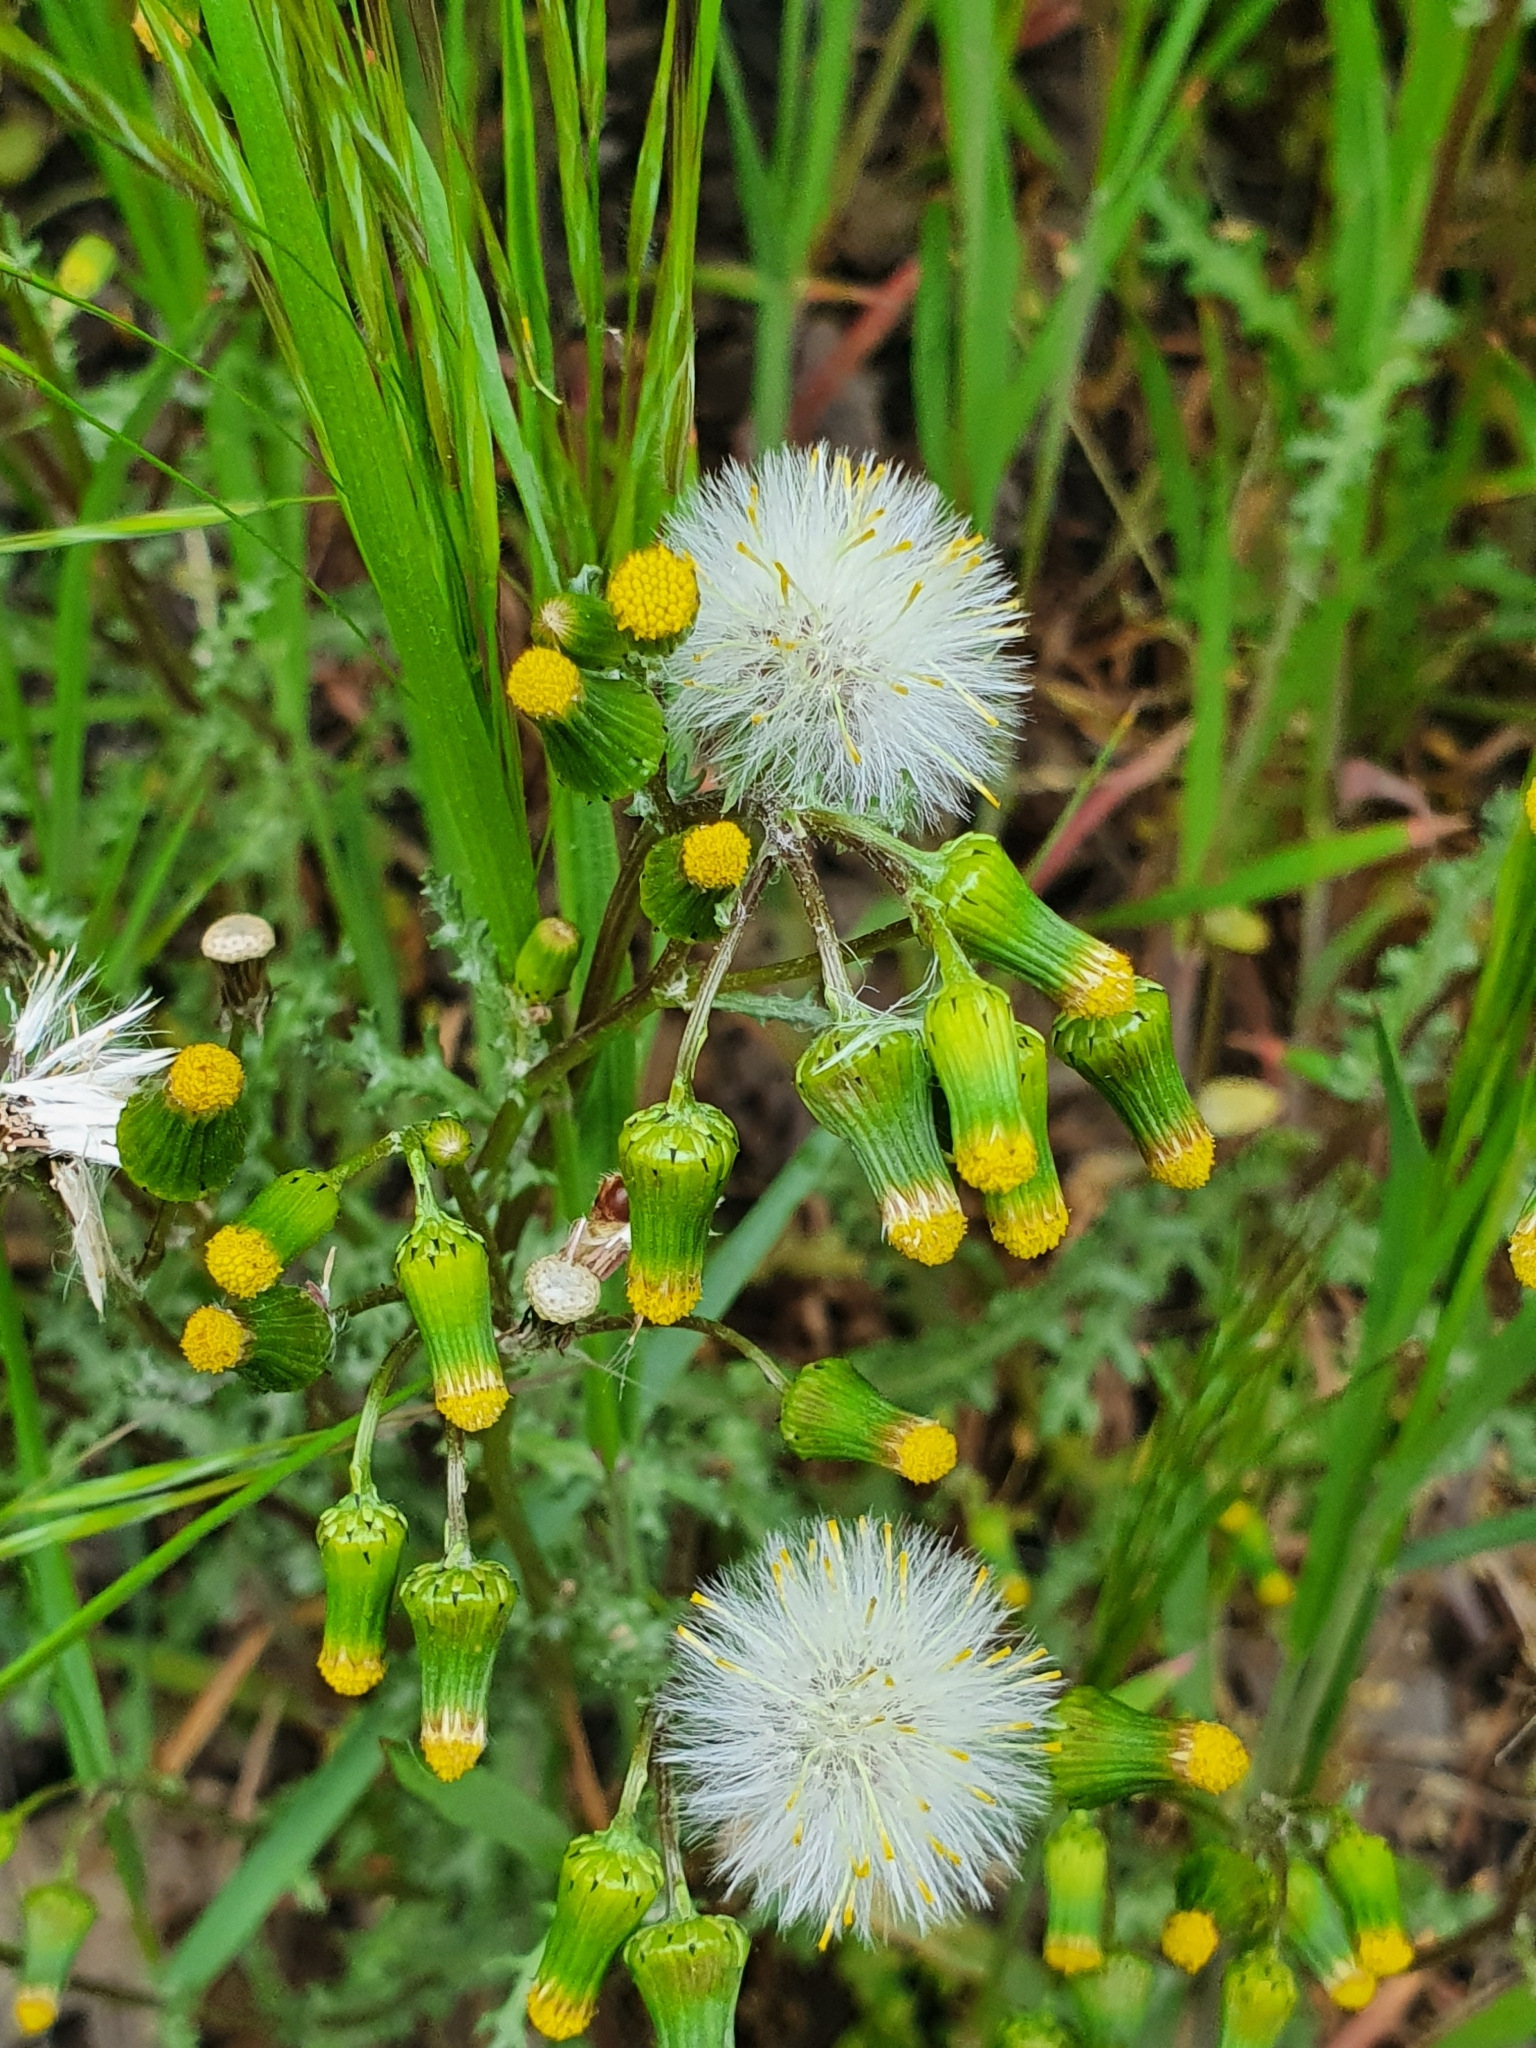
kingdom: Plantae
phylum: Tracheophyta
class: Magnoliopsida
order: Asterales
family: Asteraceae
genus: Senecio
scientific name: Senecio vulgaris
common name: Old-man-in-the-spring
